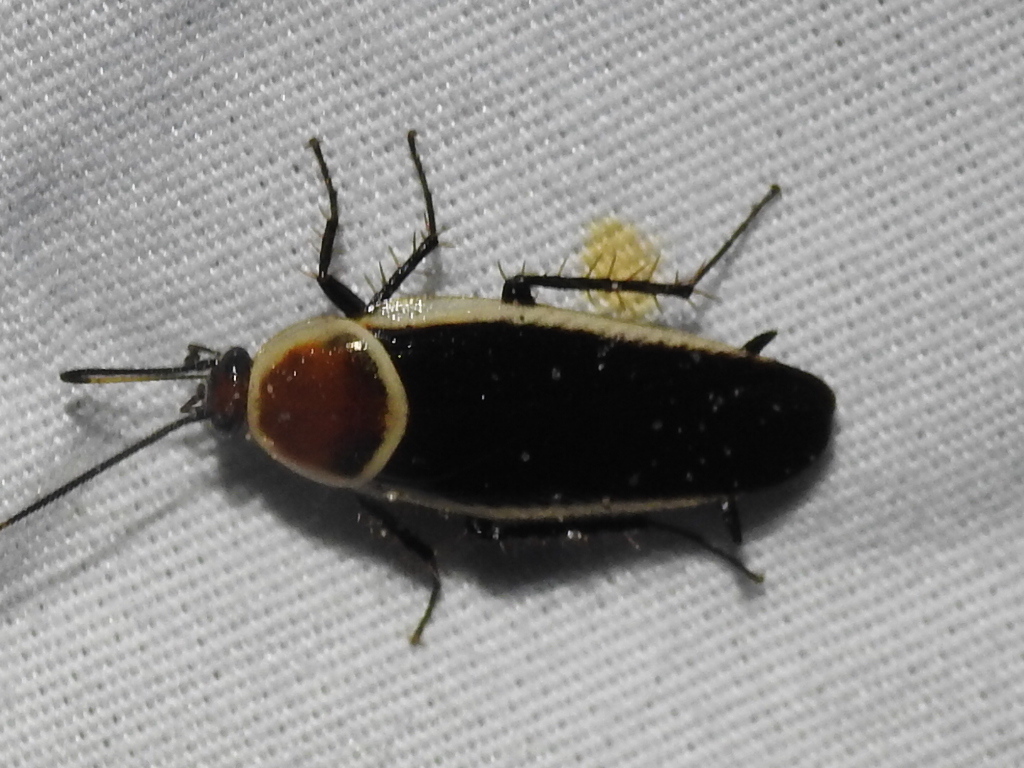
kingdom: Animalia
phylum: Arthropoda
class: Insecta
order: Blattodea
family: Ectobiidae
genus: Pseudomops
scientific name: Pseudomops septentrionalis
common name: Pale-bordered field cockroach
